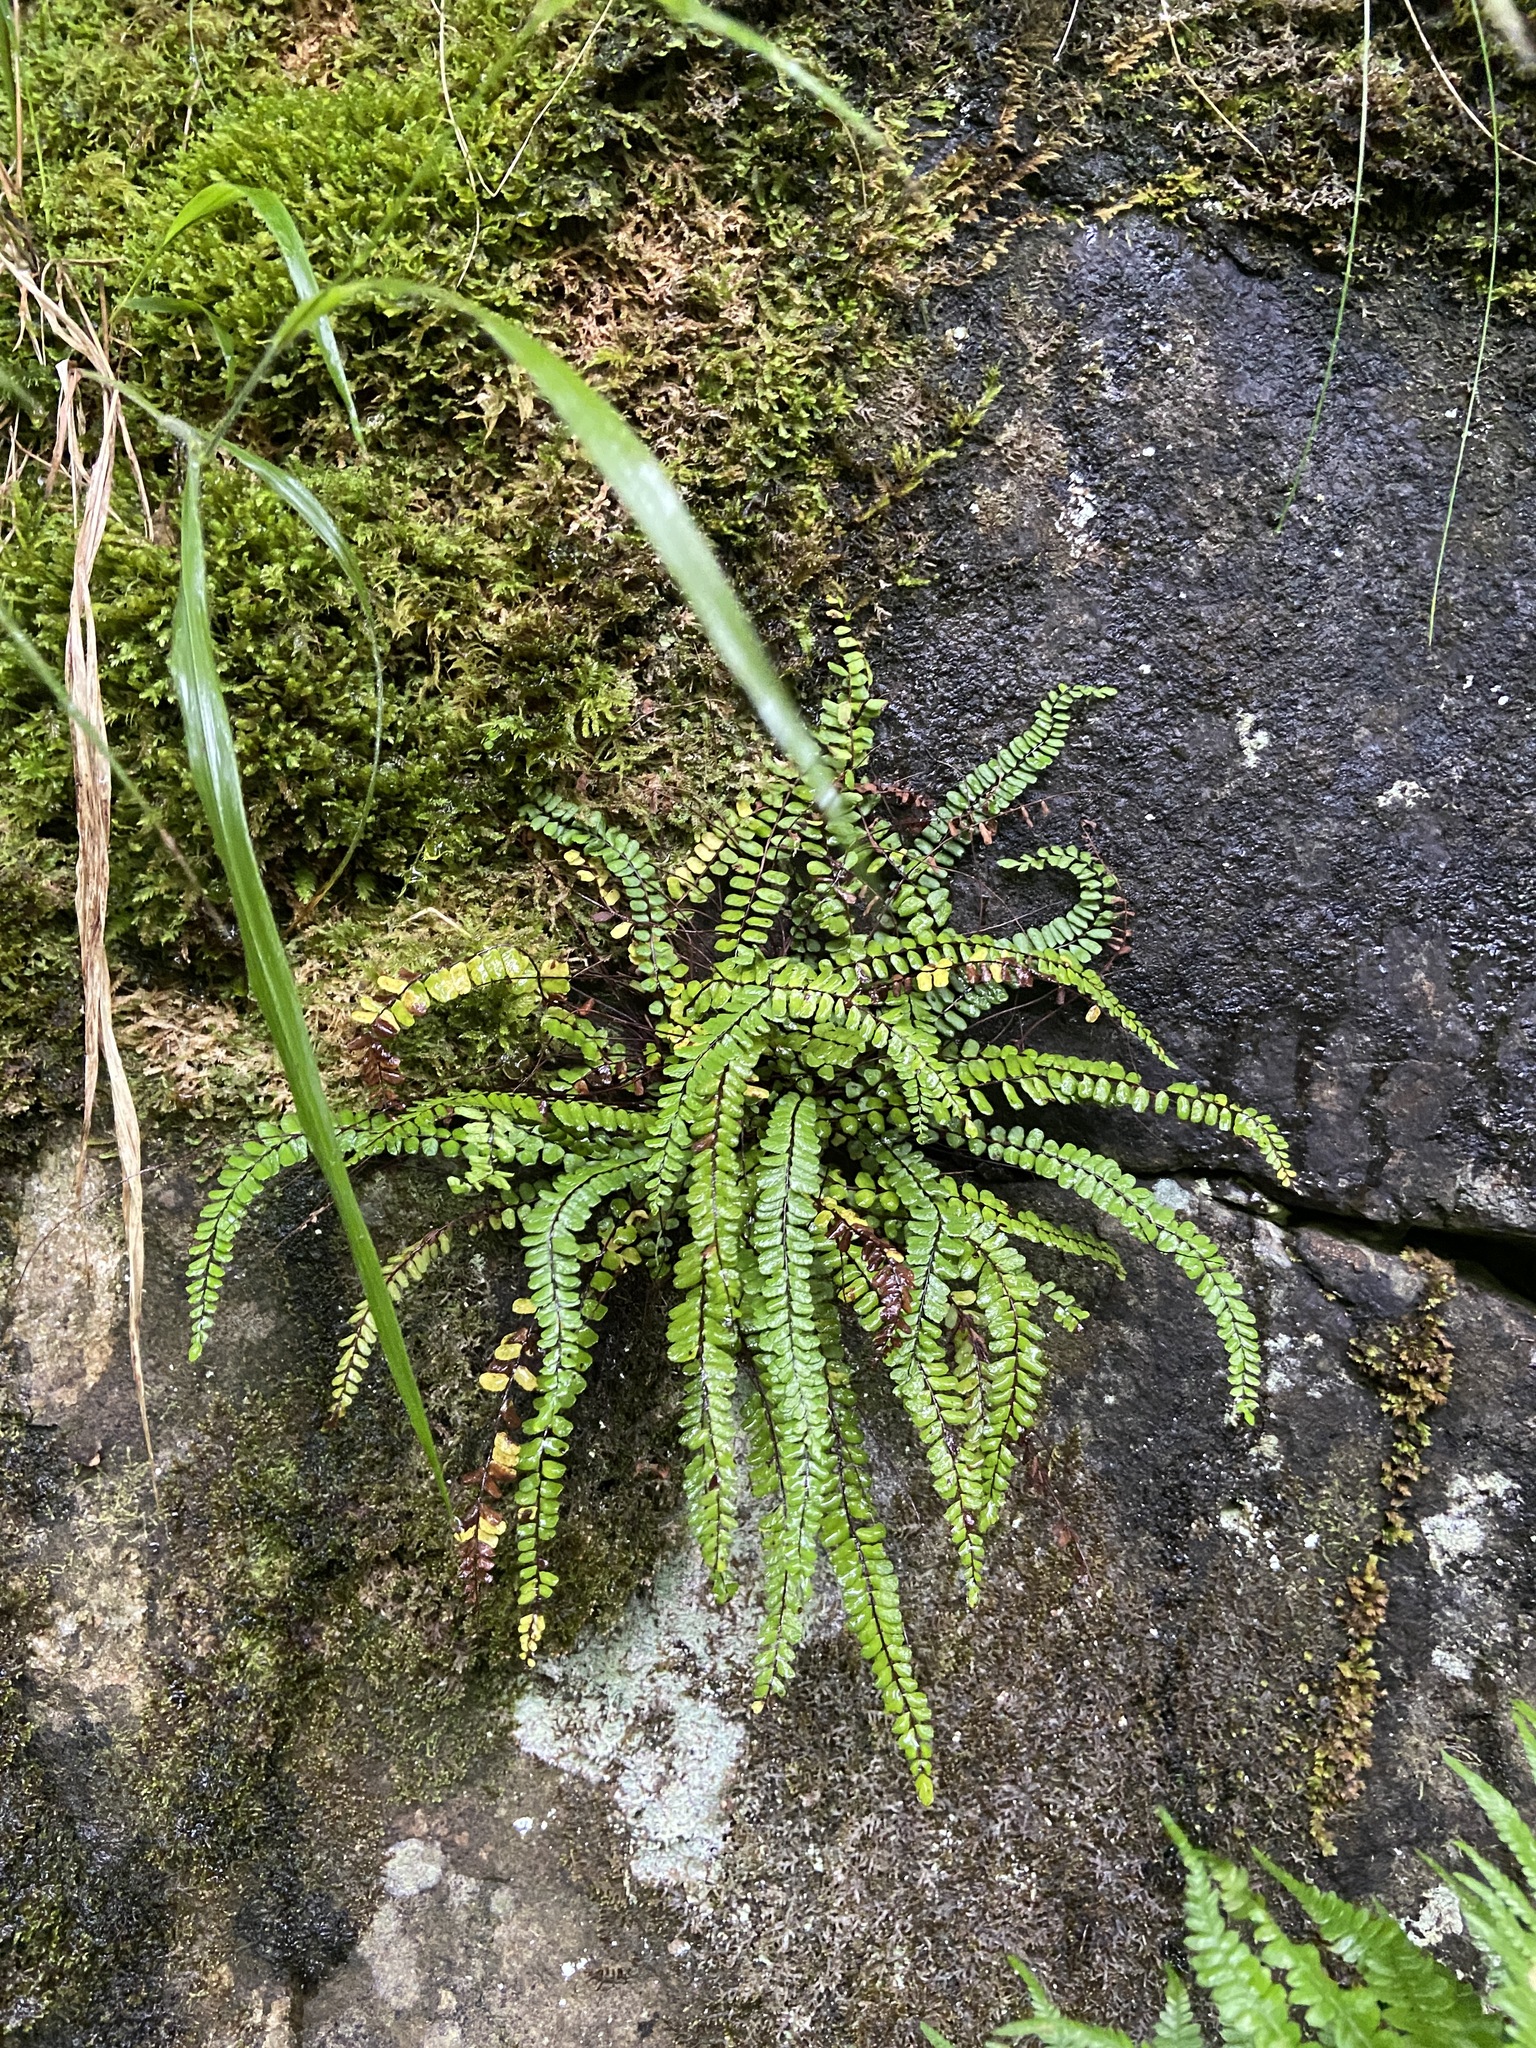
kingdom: Plantae
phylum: Tracheophyta
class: Polypodiopsida
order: Polypodiales
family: Aspleniaceae
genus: Asplenium
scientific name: Asplenium trichomanes
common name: Maidenhair spleenwort
